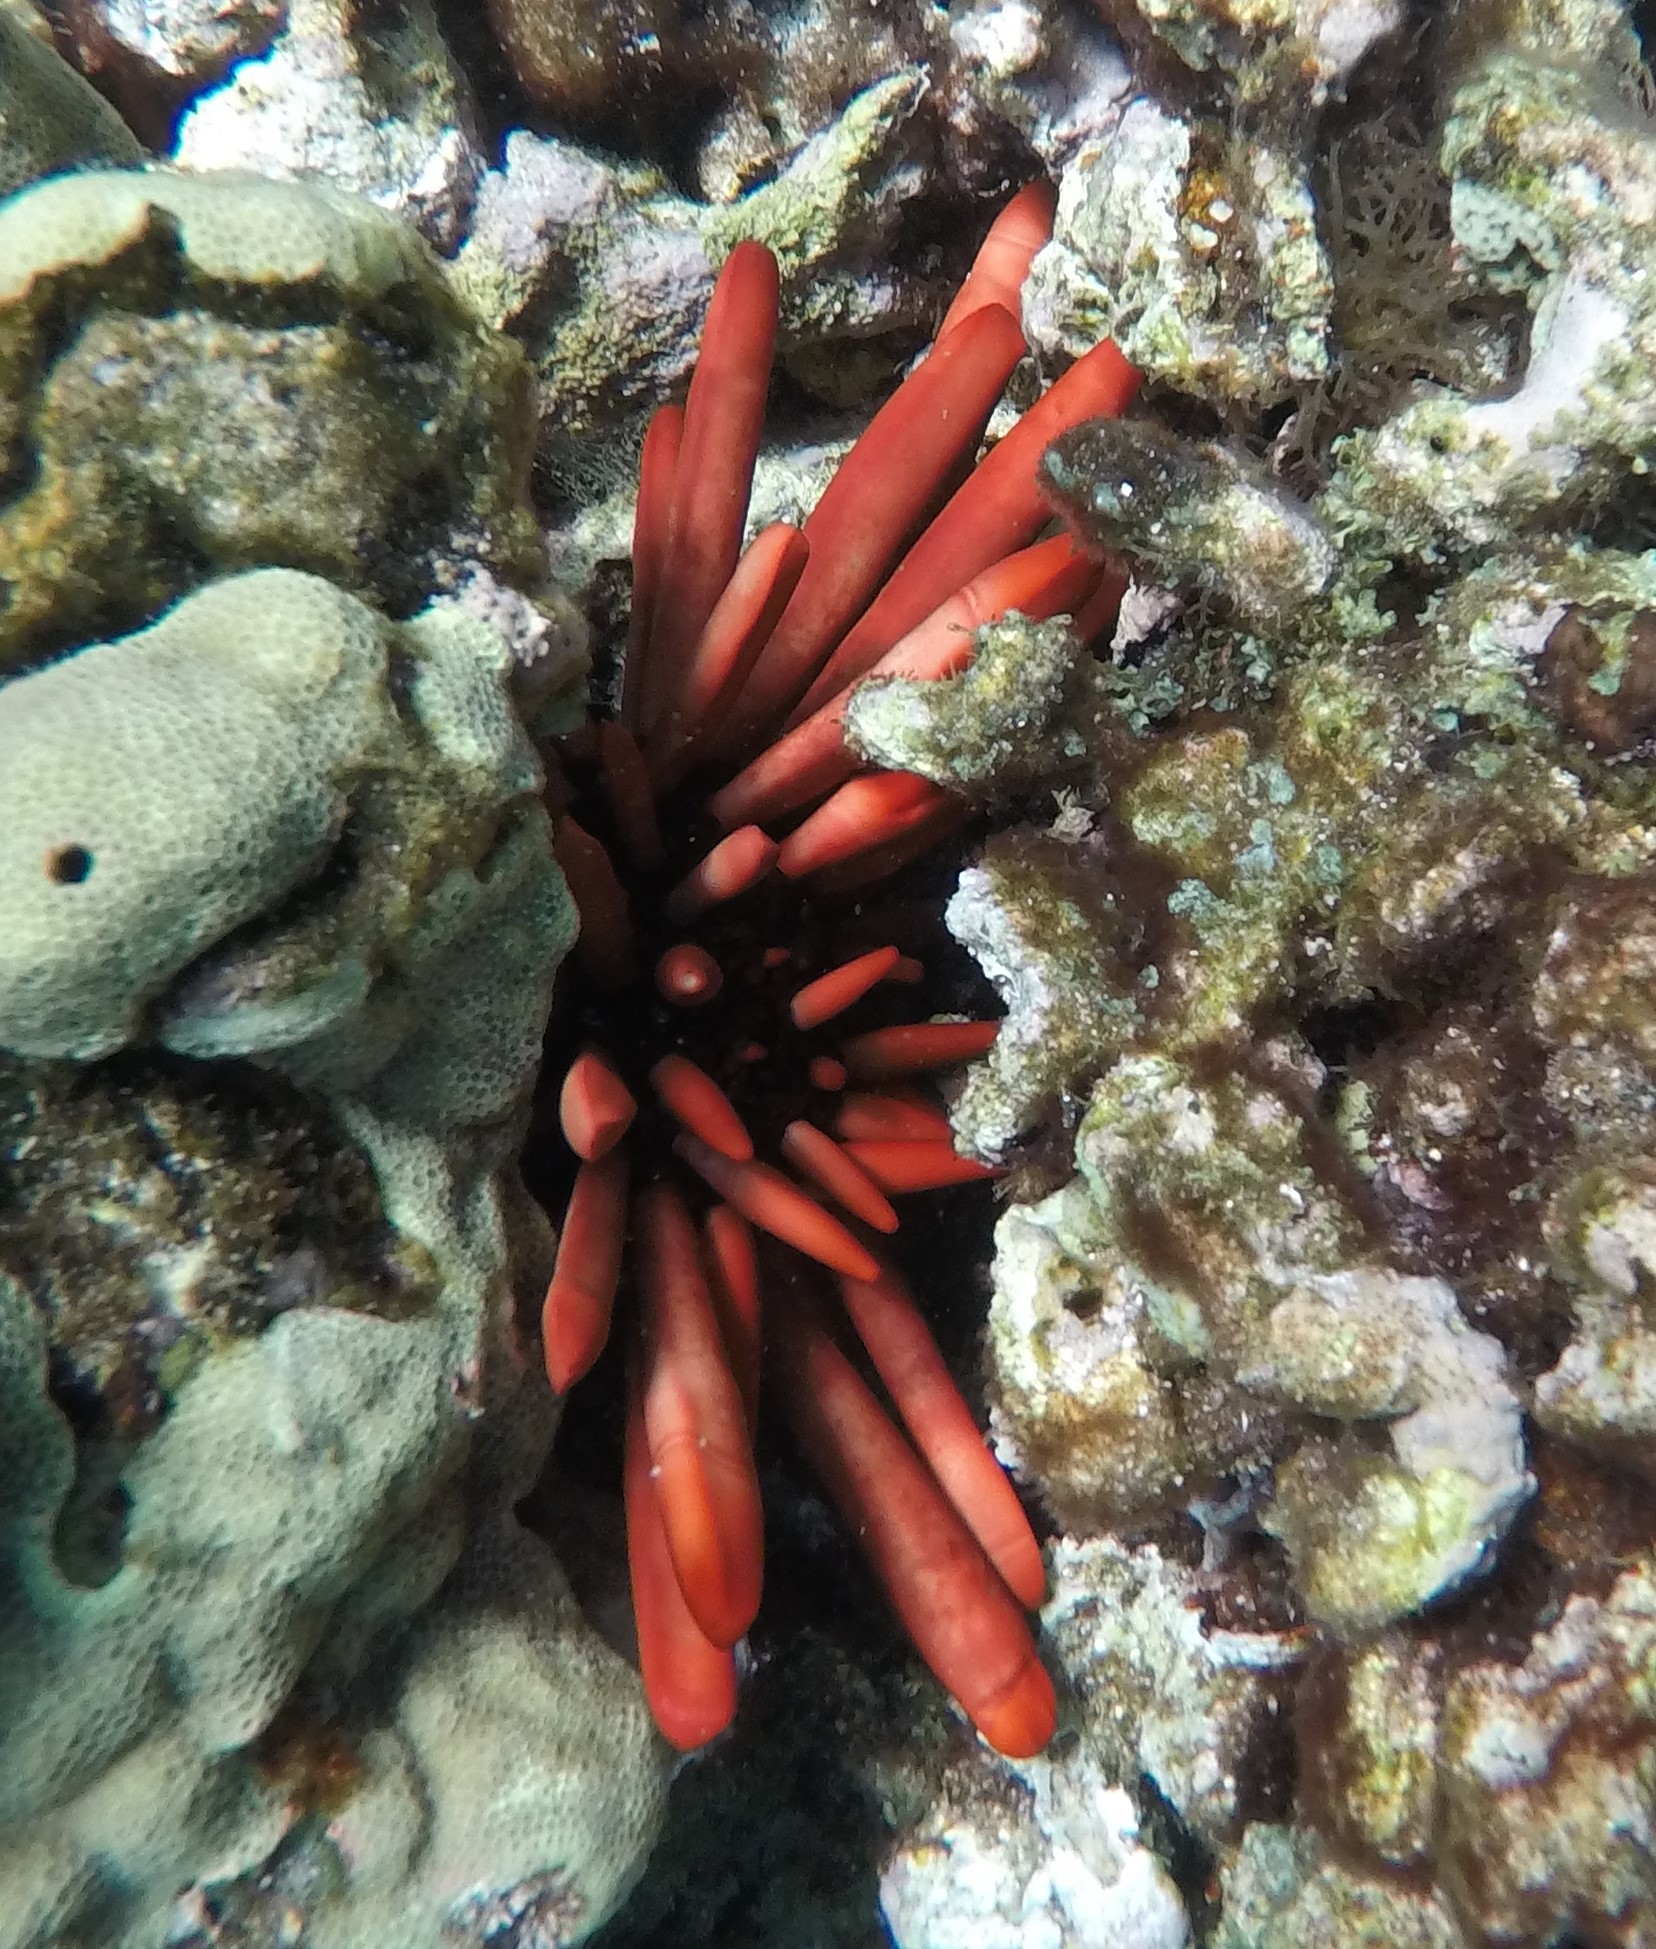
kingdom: Animalia
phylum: Echinodermata
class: Echinoidea
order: Camarodonta
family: Echinometridae
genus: Heterocentrotus
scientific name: Heterocentrotus mamillatus
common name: Slate pencil urchin
